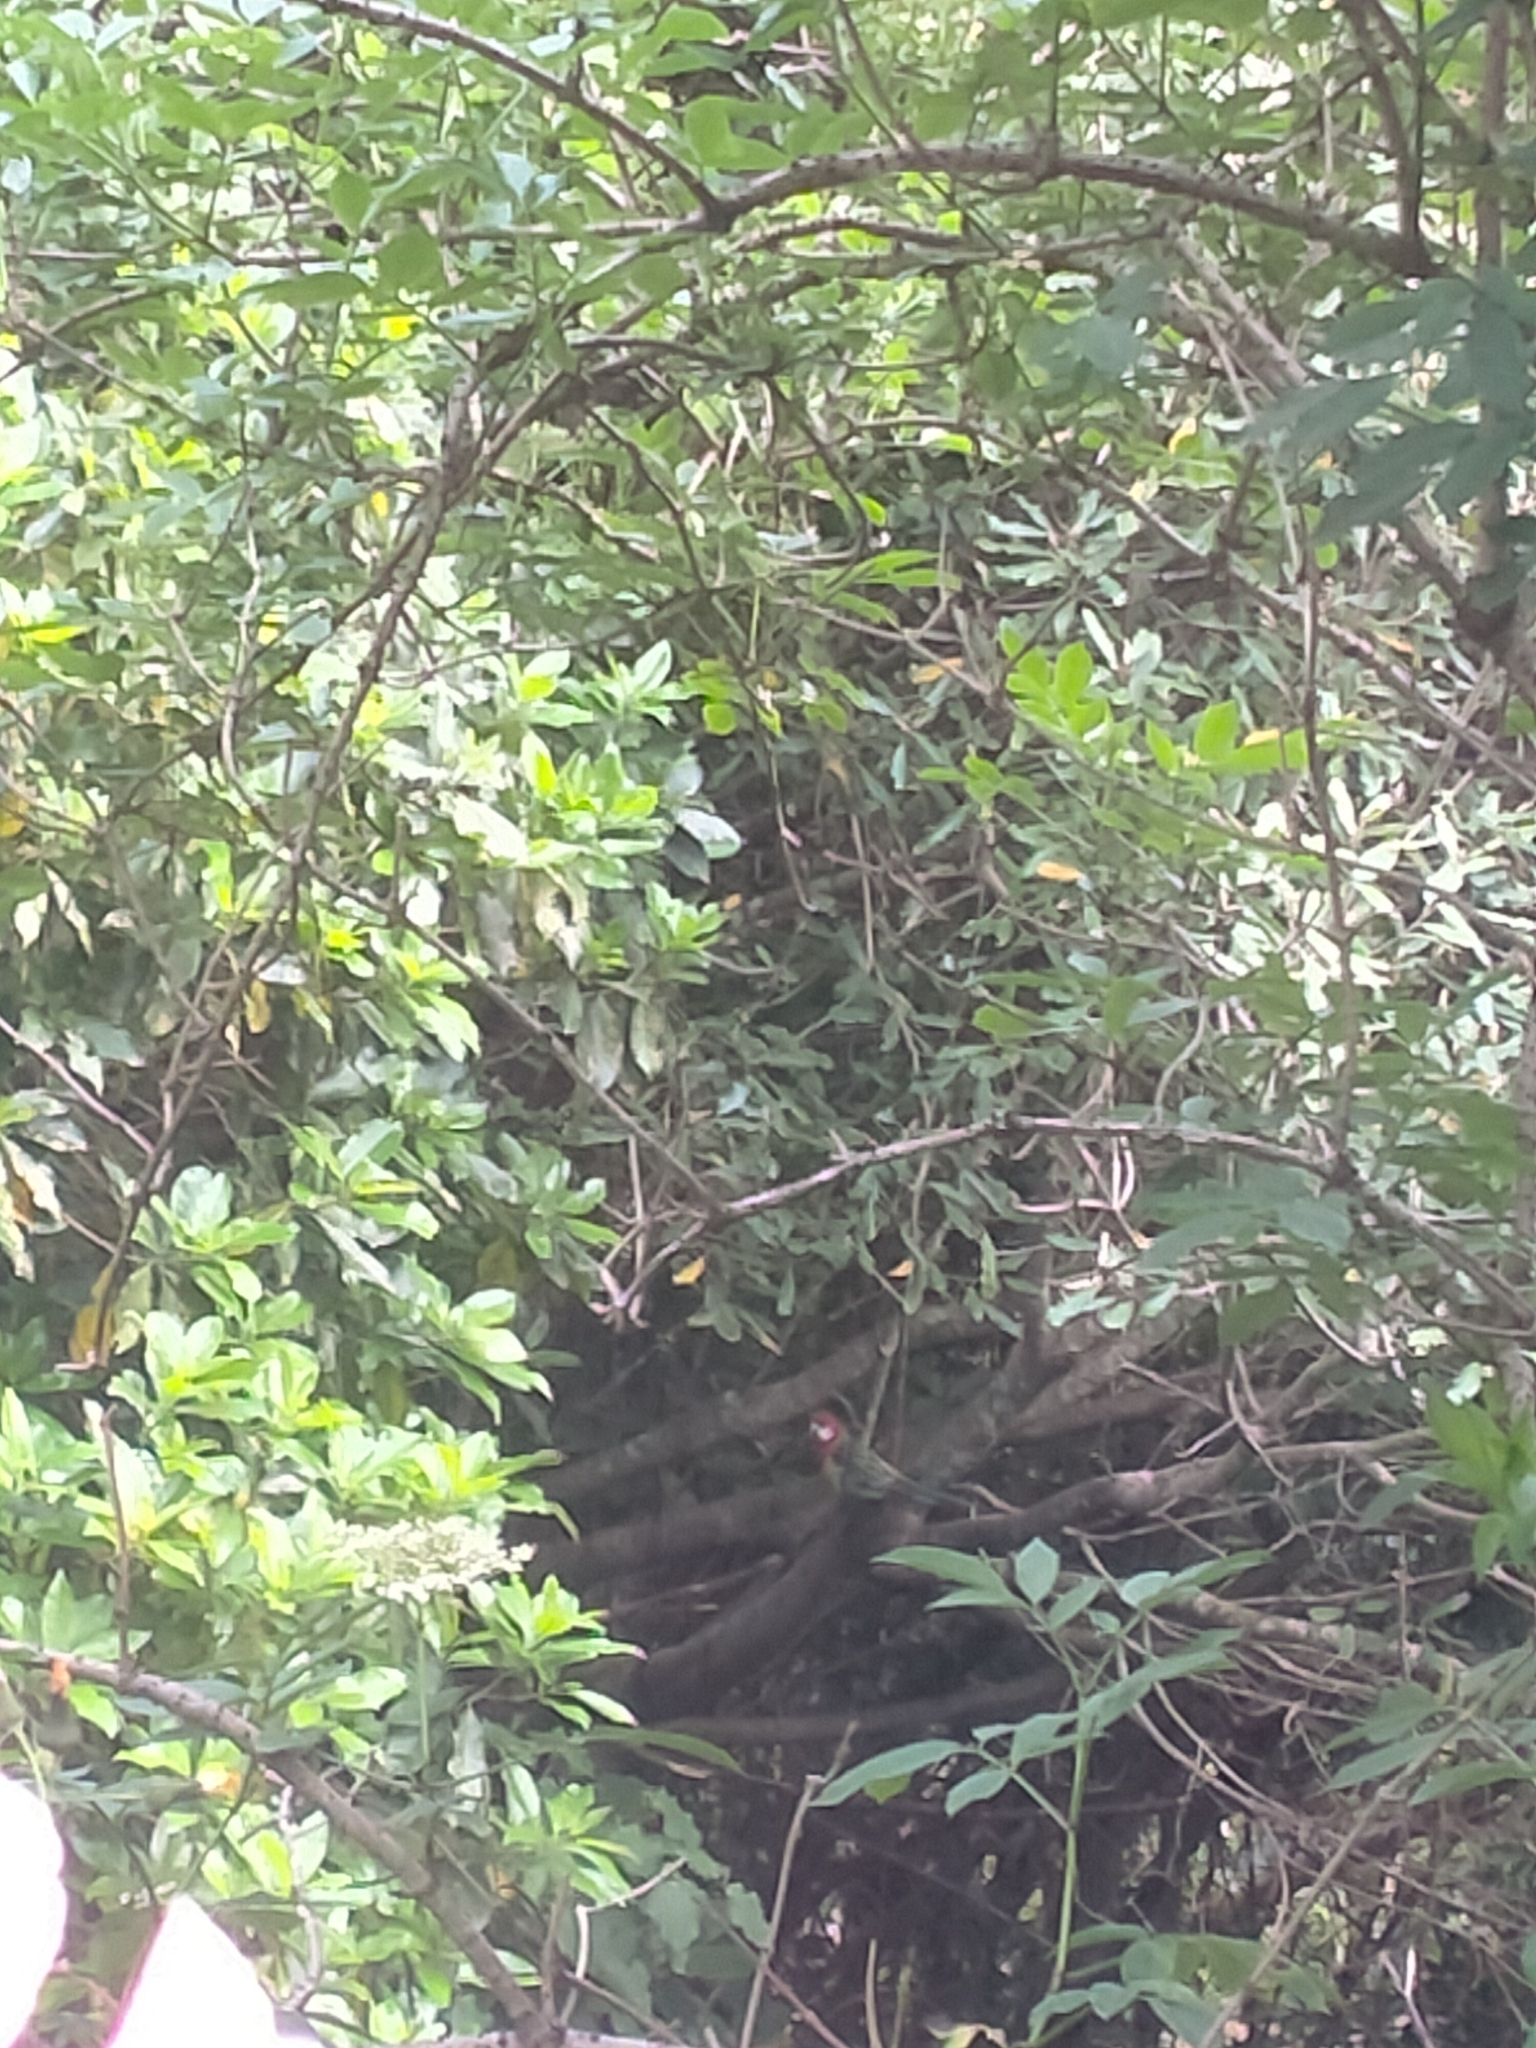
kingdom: Animalia
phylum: Chordata
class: Aves
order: Psittaciformes
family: Psittacidae
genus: Platycercus
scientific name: Platycercus eximius
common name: Eastern rosella
